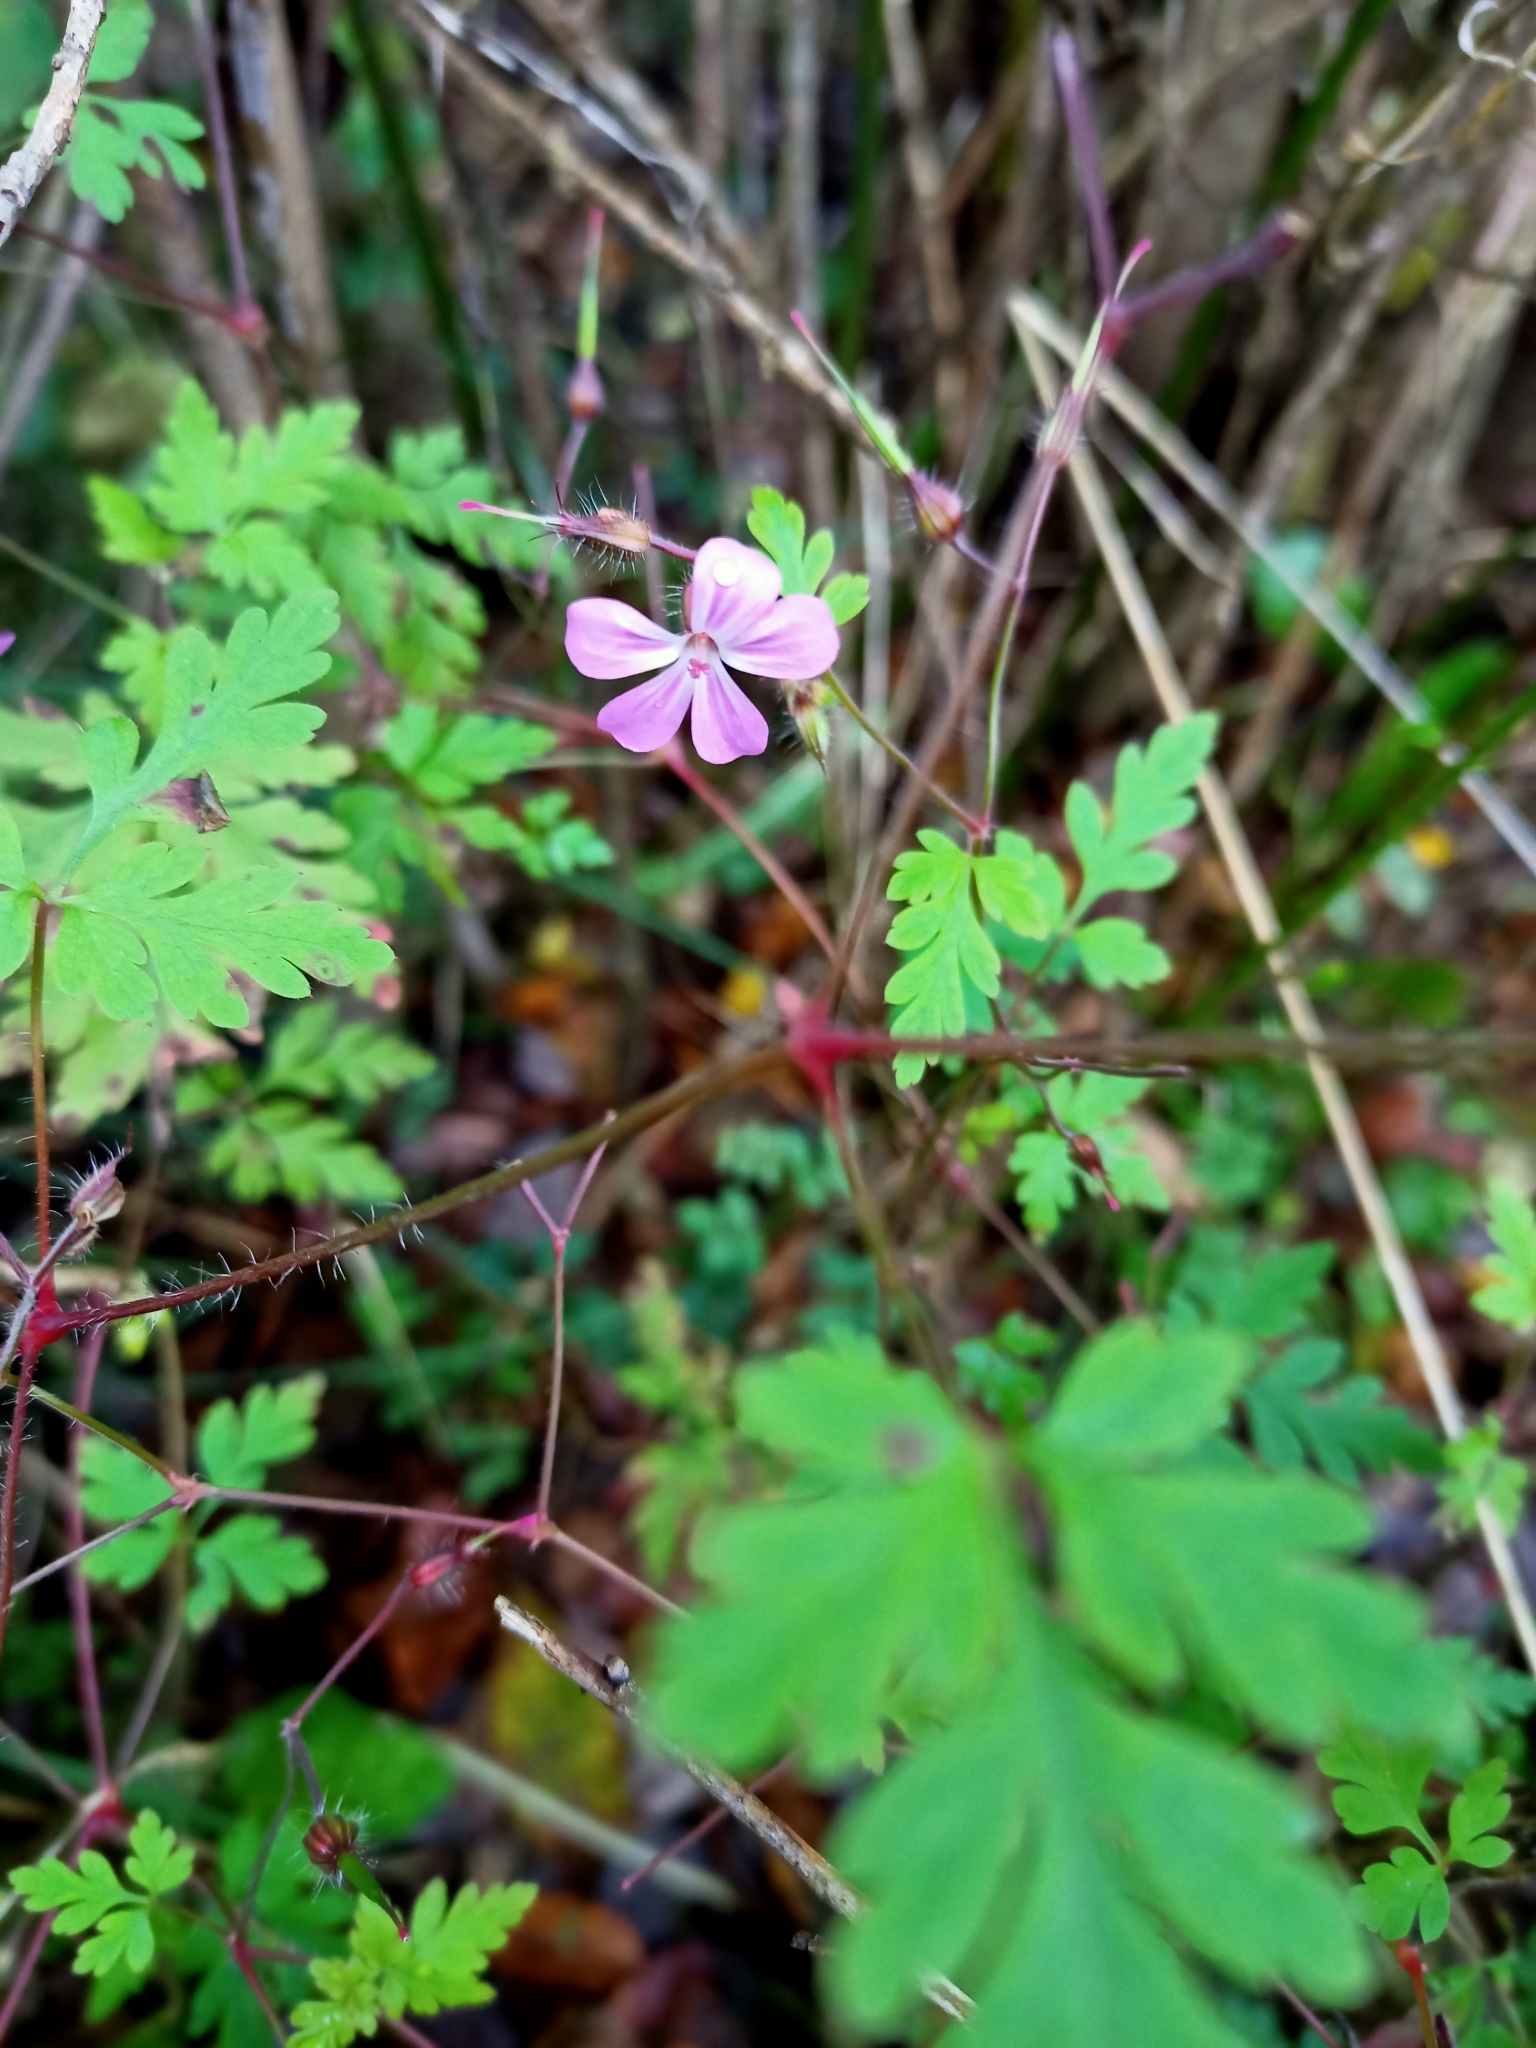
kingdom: Plantae
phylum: Tracheophyta
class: Magnoliopsida
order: Geraniales
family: Geraniaceae
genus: Geranium
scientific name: Geranium robertianum
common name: Herb-robert
